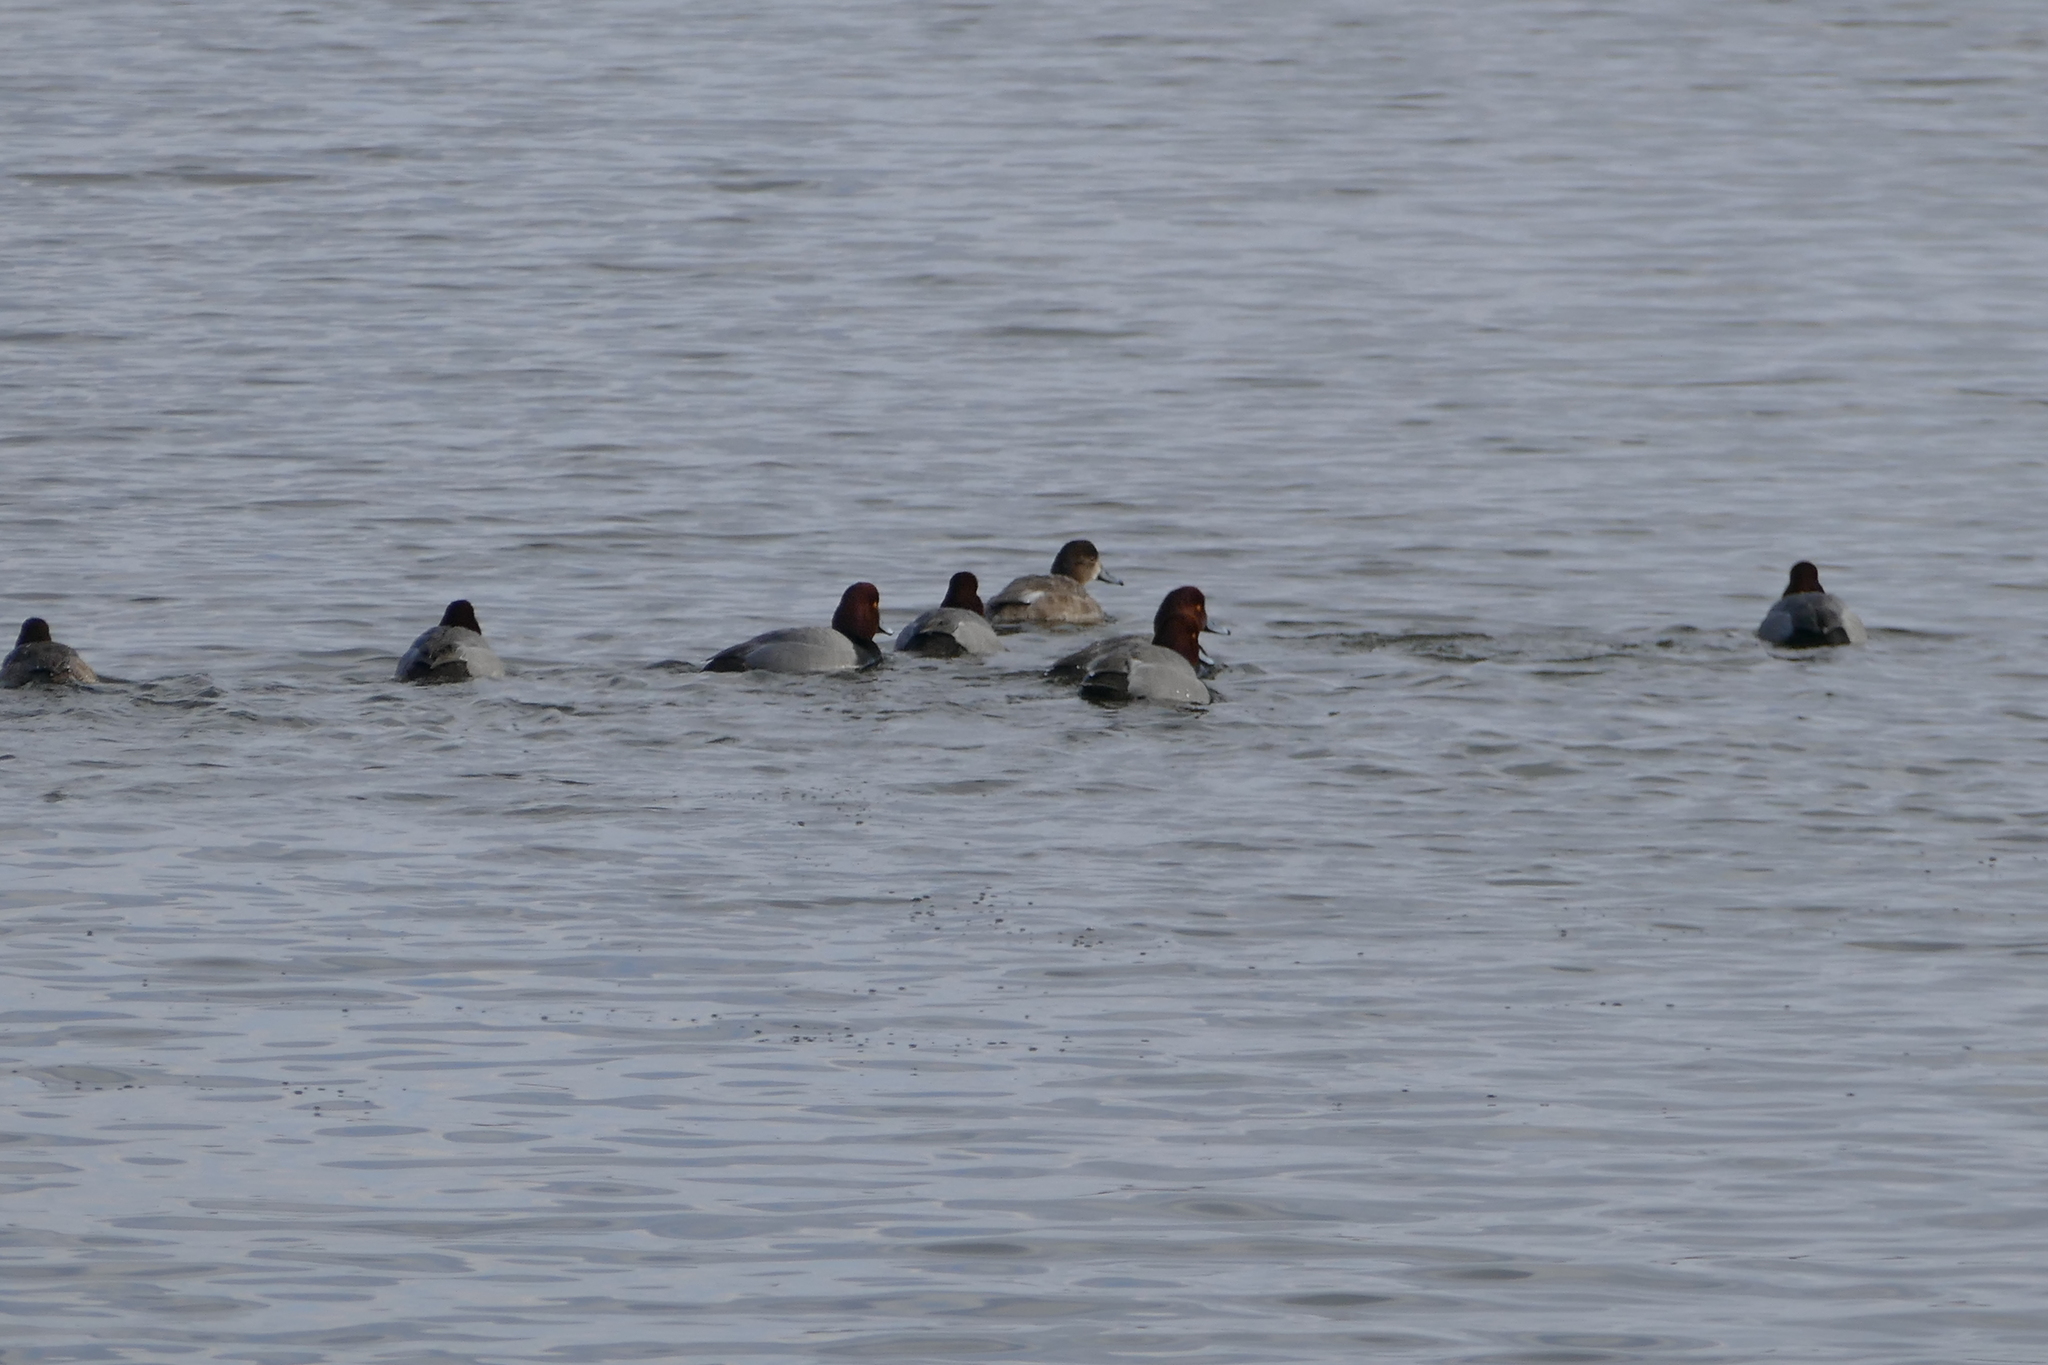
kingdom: Animalia
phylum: Chordata
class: Aves
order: Anseriformes
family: Anatidae
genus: Aythya
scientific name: Aythya americana
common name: Redhead
